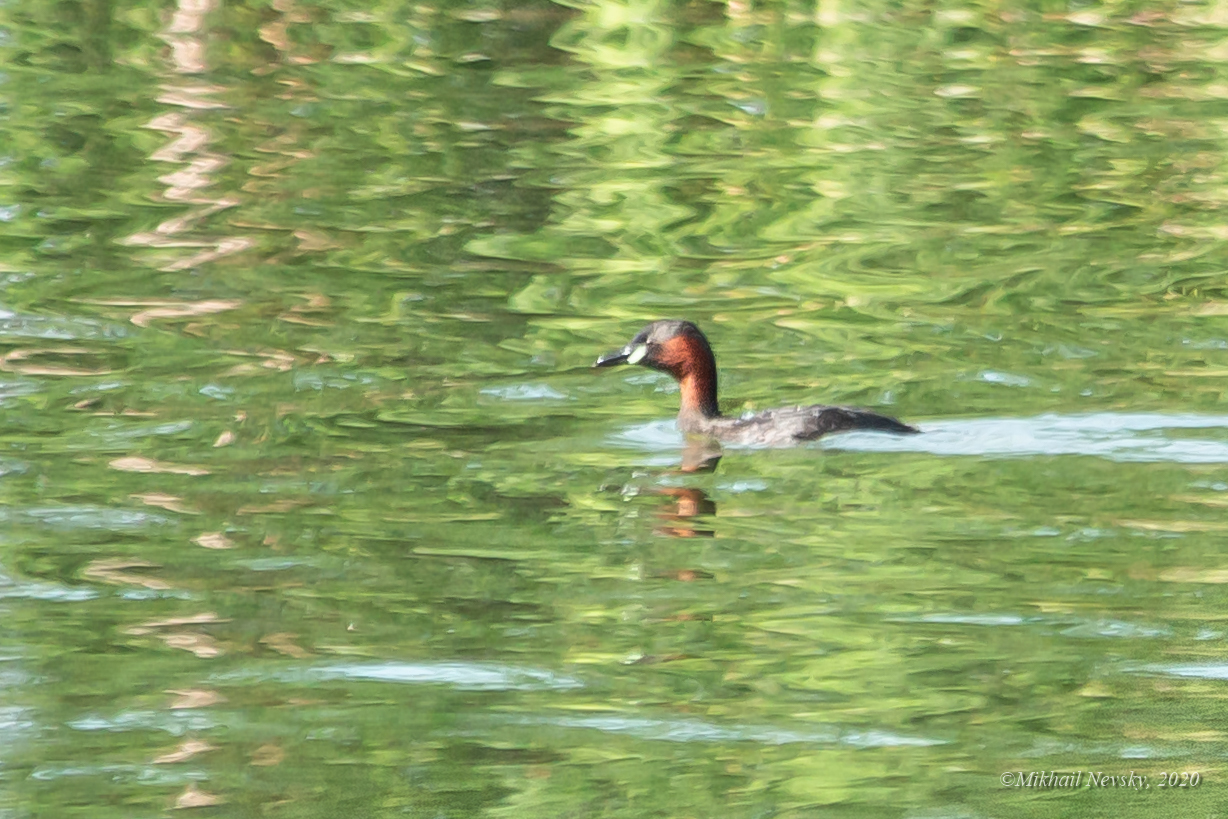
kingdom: Animalia
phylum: Chordata
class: Aves
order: Podicipediformes
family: Podicipedidae
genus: Tachybaptus
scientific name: Tachybaptus ruficollis
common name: Little grebe
